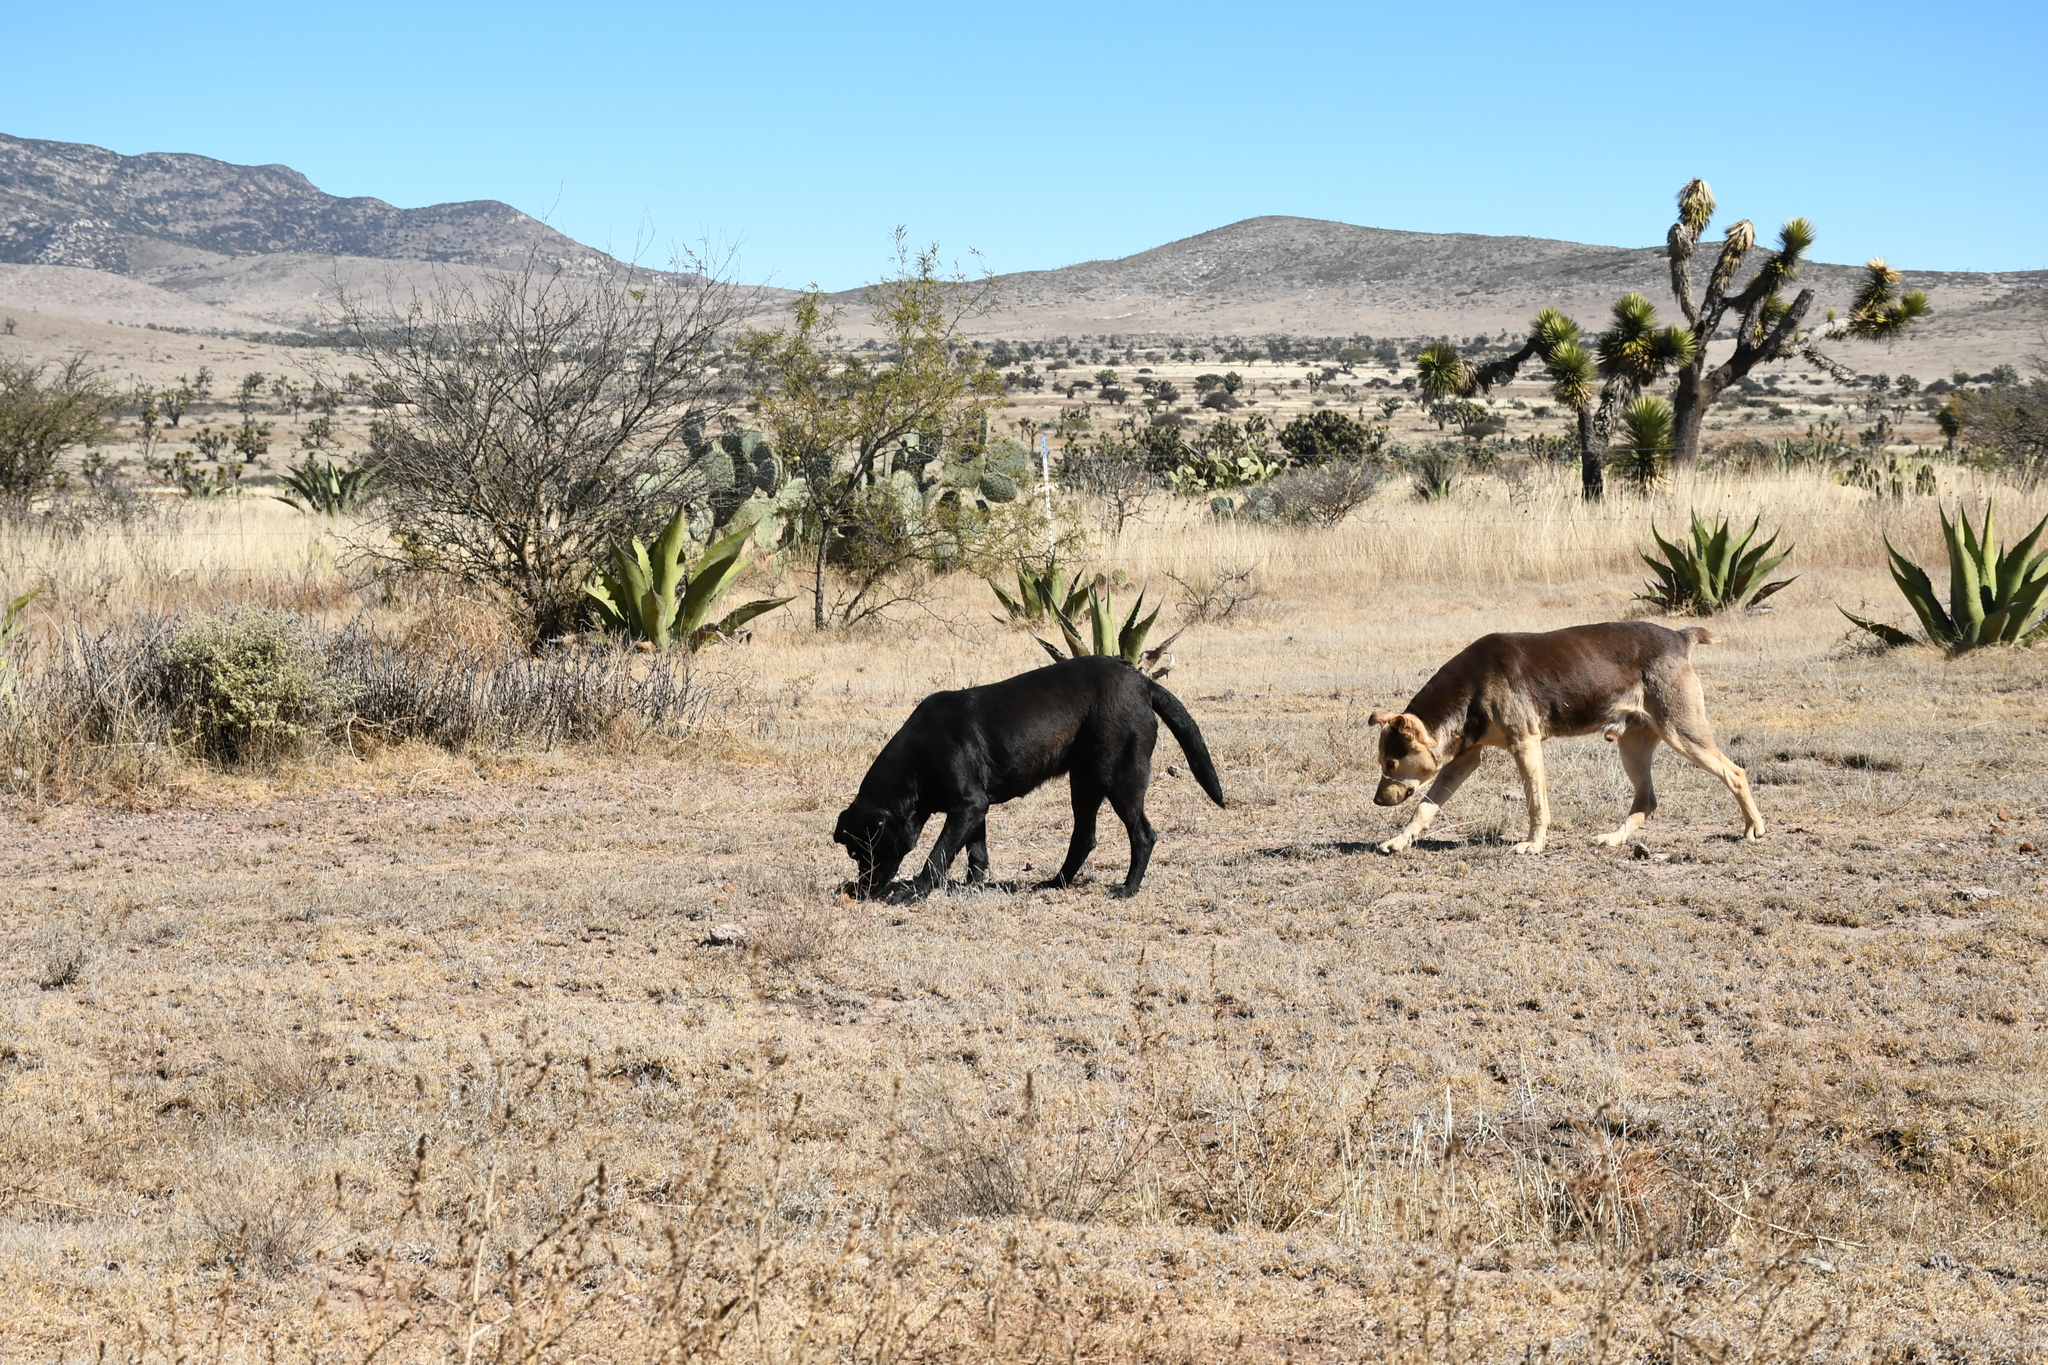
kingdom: Animalia
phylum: Chordata
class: Mammalia
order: Carnivora
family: Canidae
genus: Canis
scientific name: Canis lupus
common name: Gray wolf
